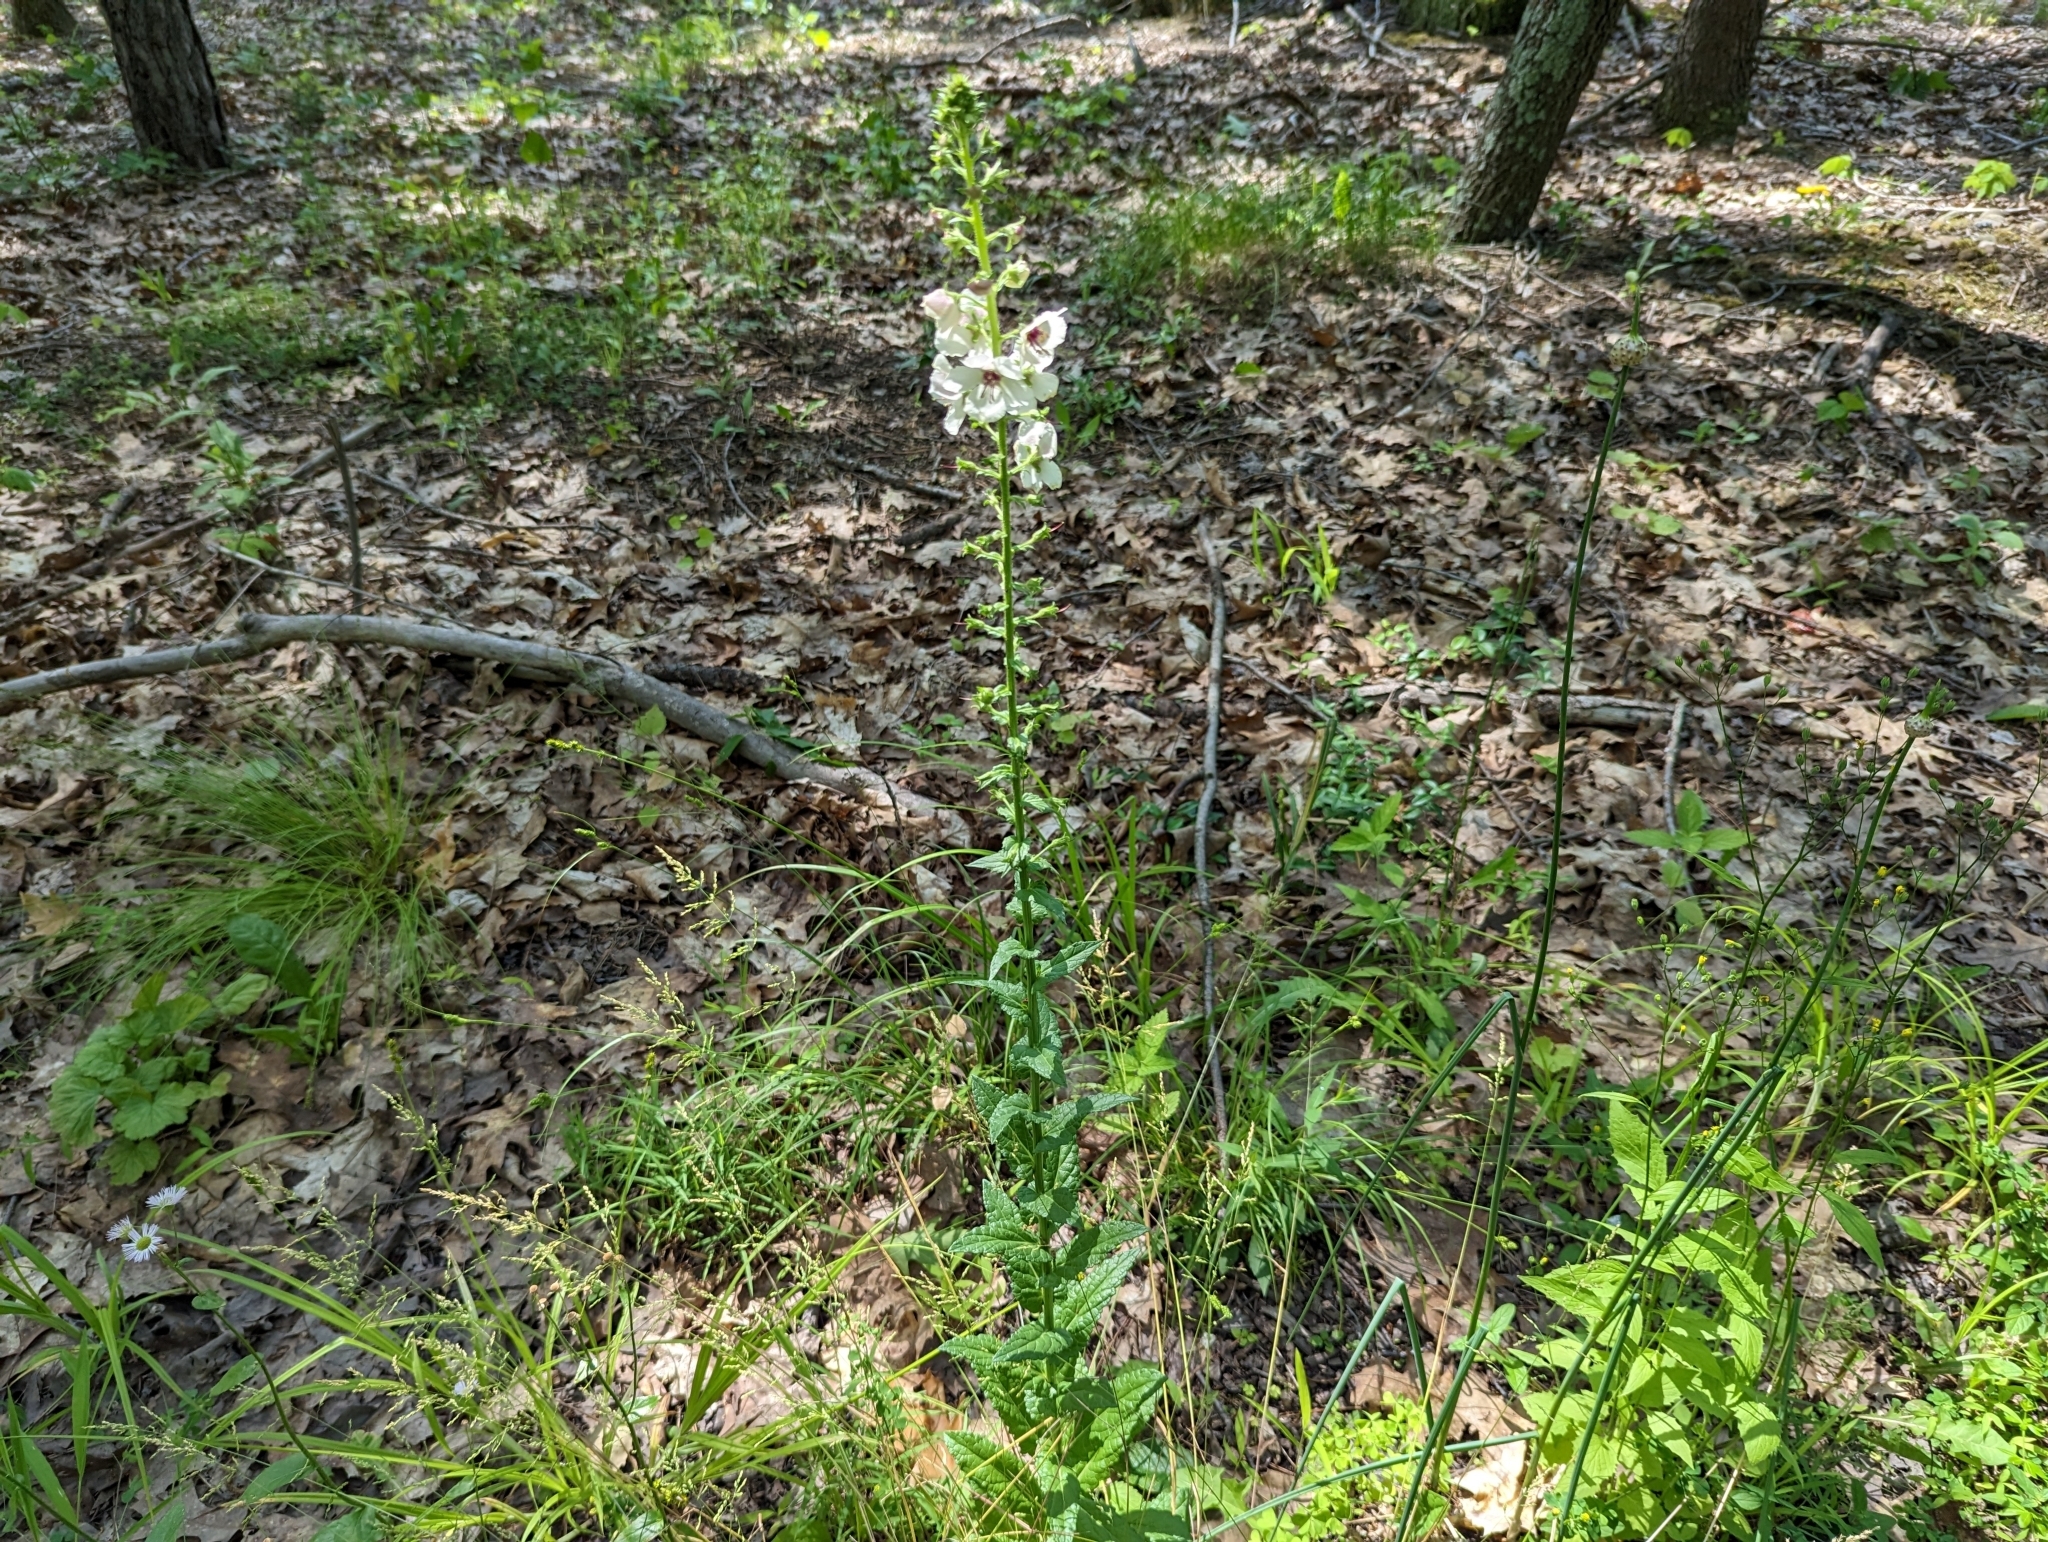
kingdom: Plantae
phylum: Tracheophyta
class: Magnoliopsida
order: Lamiales
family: Scrophulariaceae
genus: Verbascum
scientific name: Verbascum blattaria
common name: Moth mullein
